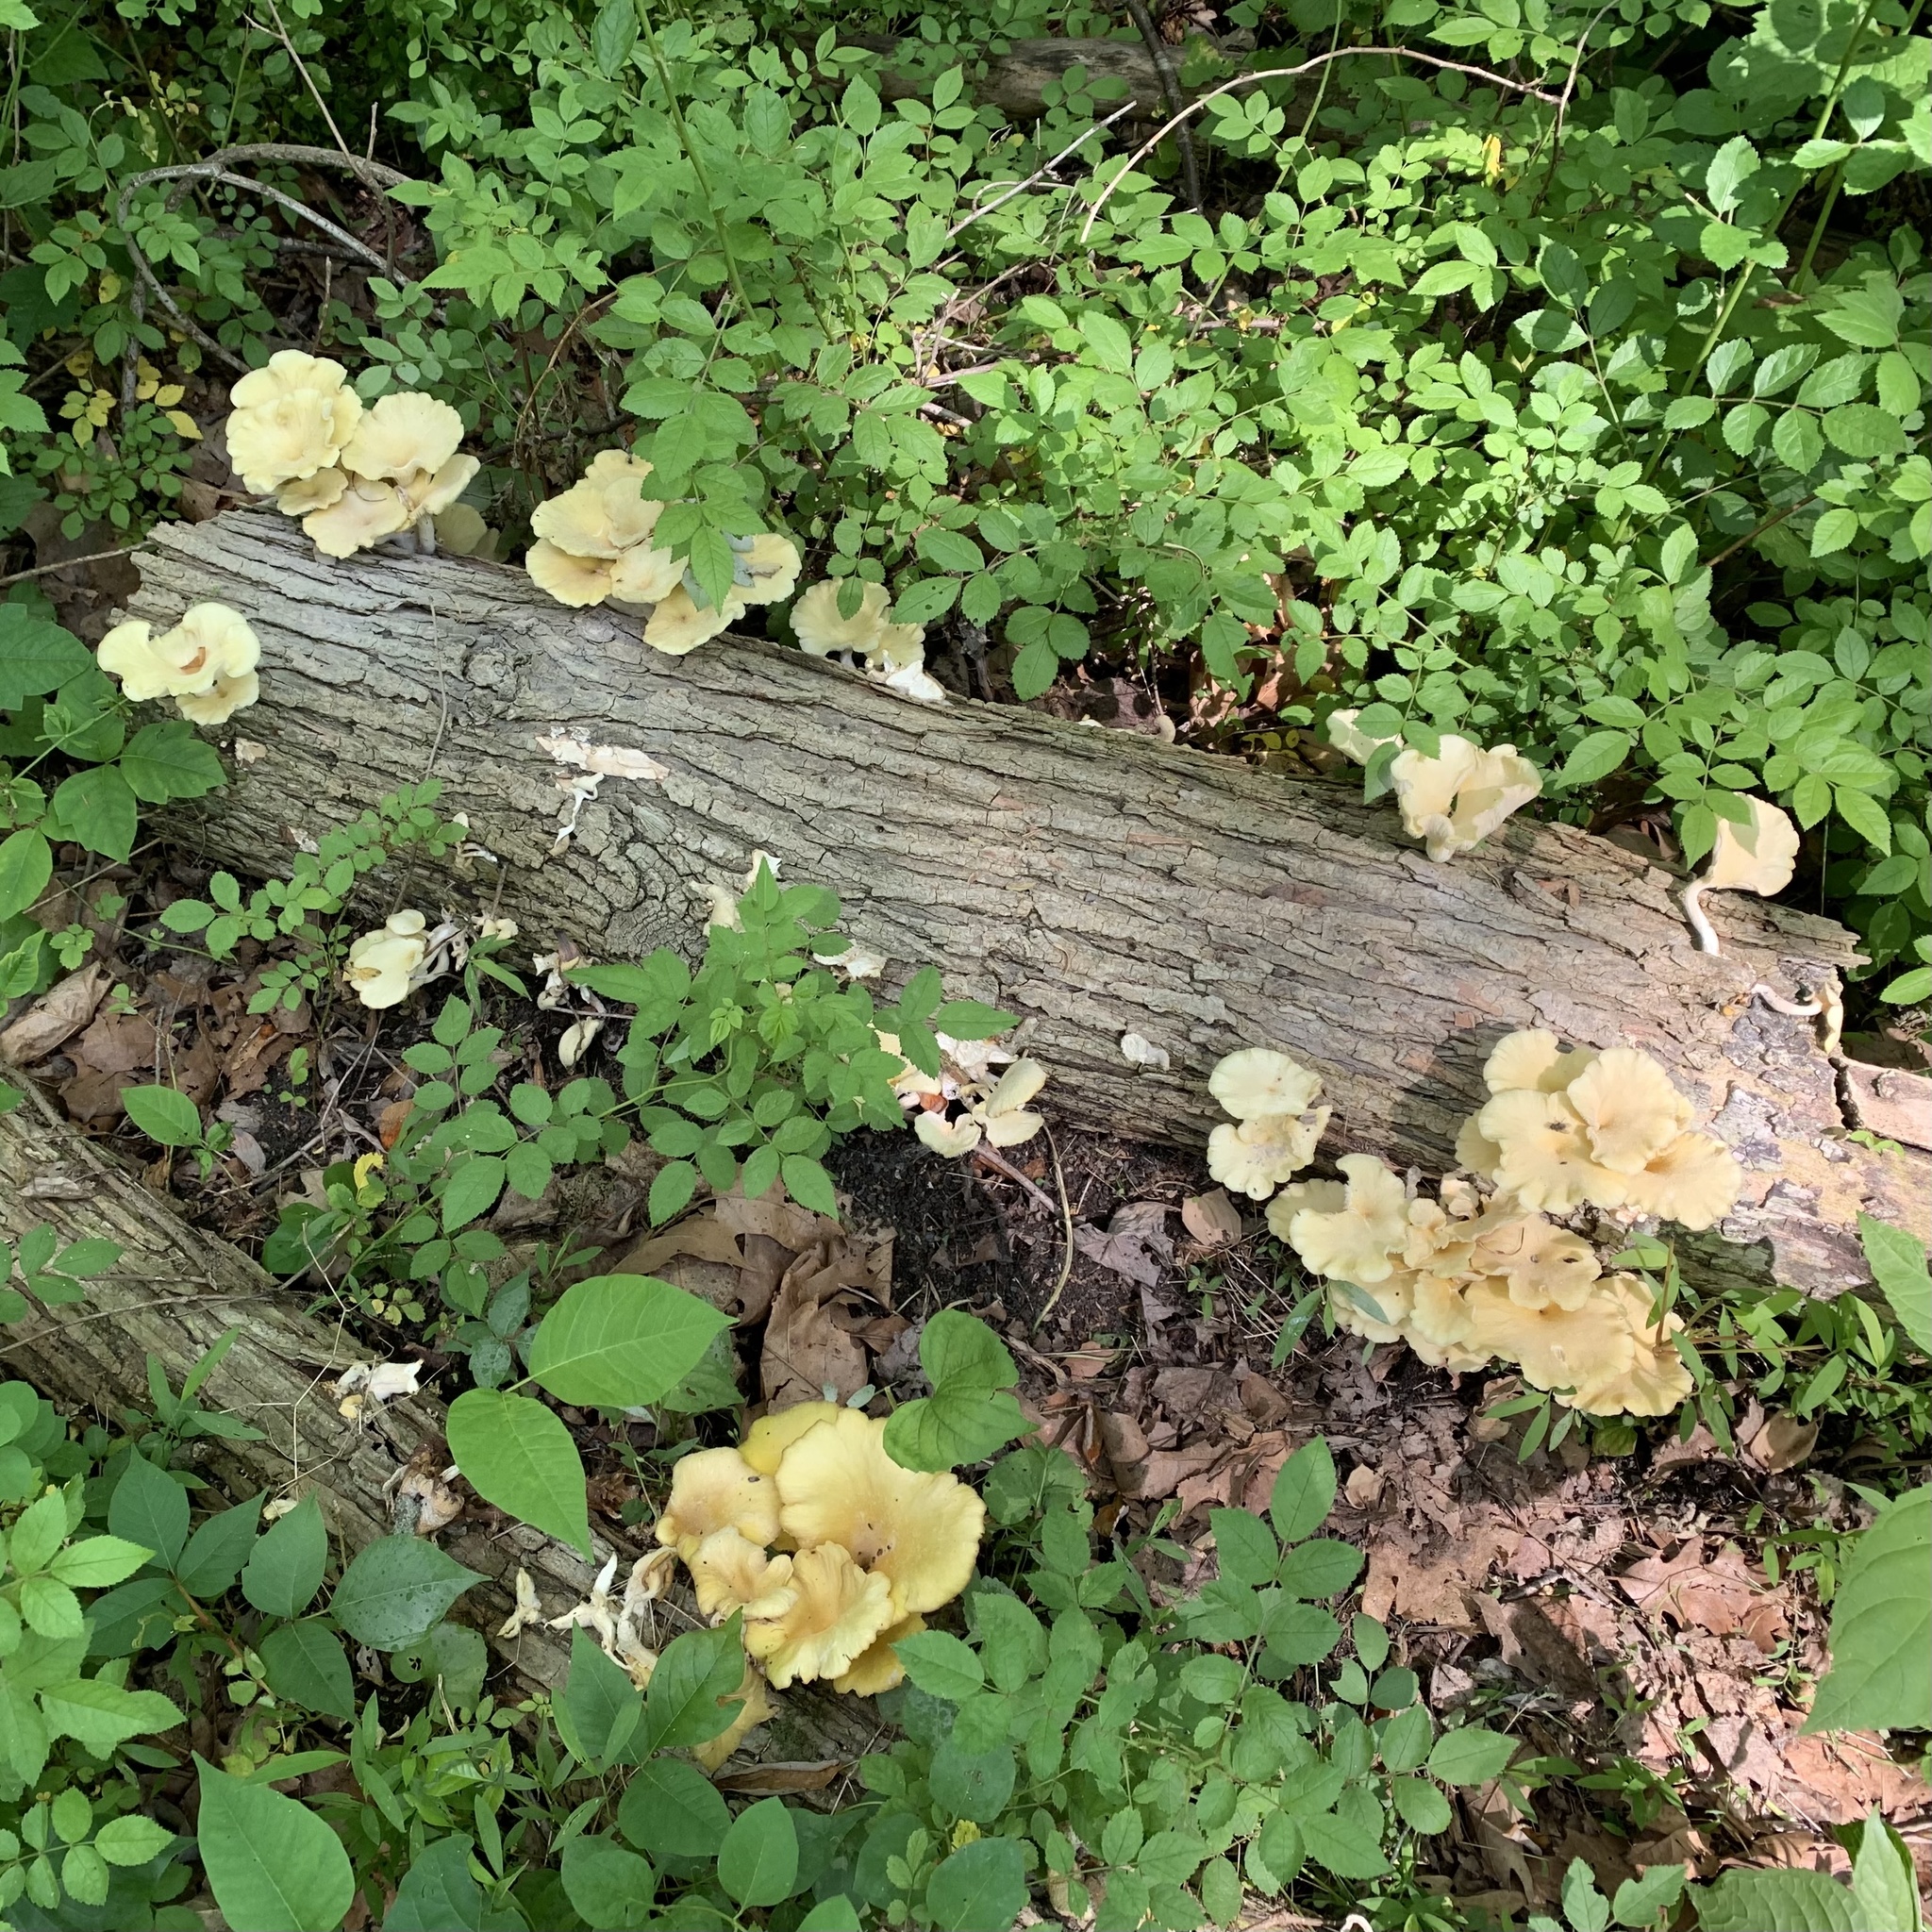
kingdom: Fungi
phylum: Basidiomycota
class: Agaricomycetes
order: Agaricales
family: Pleurotaceae
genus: Pleurotus
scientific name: Pleurotus citrinopileatus
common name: Golden oyster mushroom
